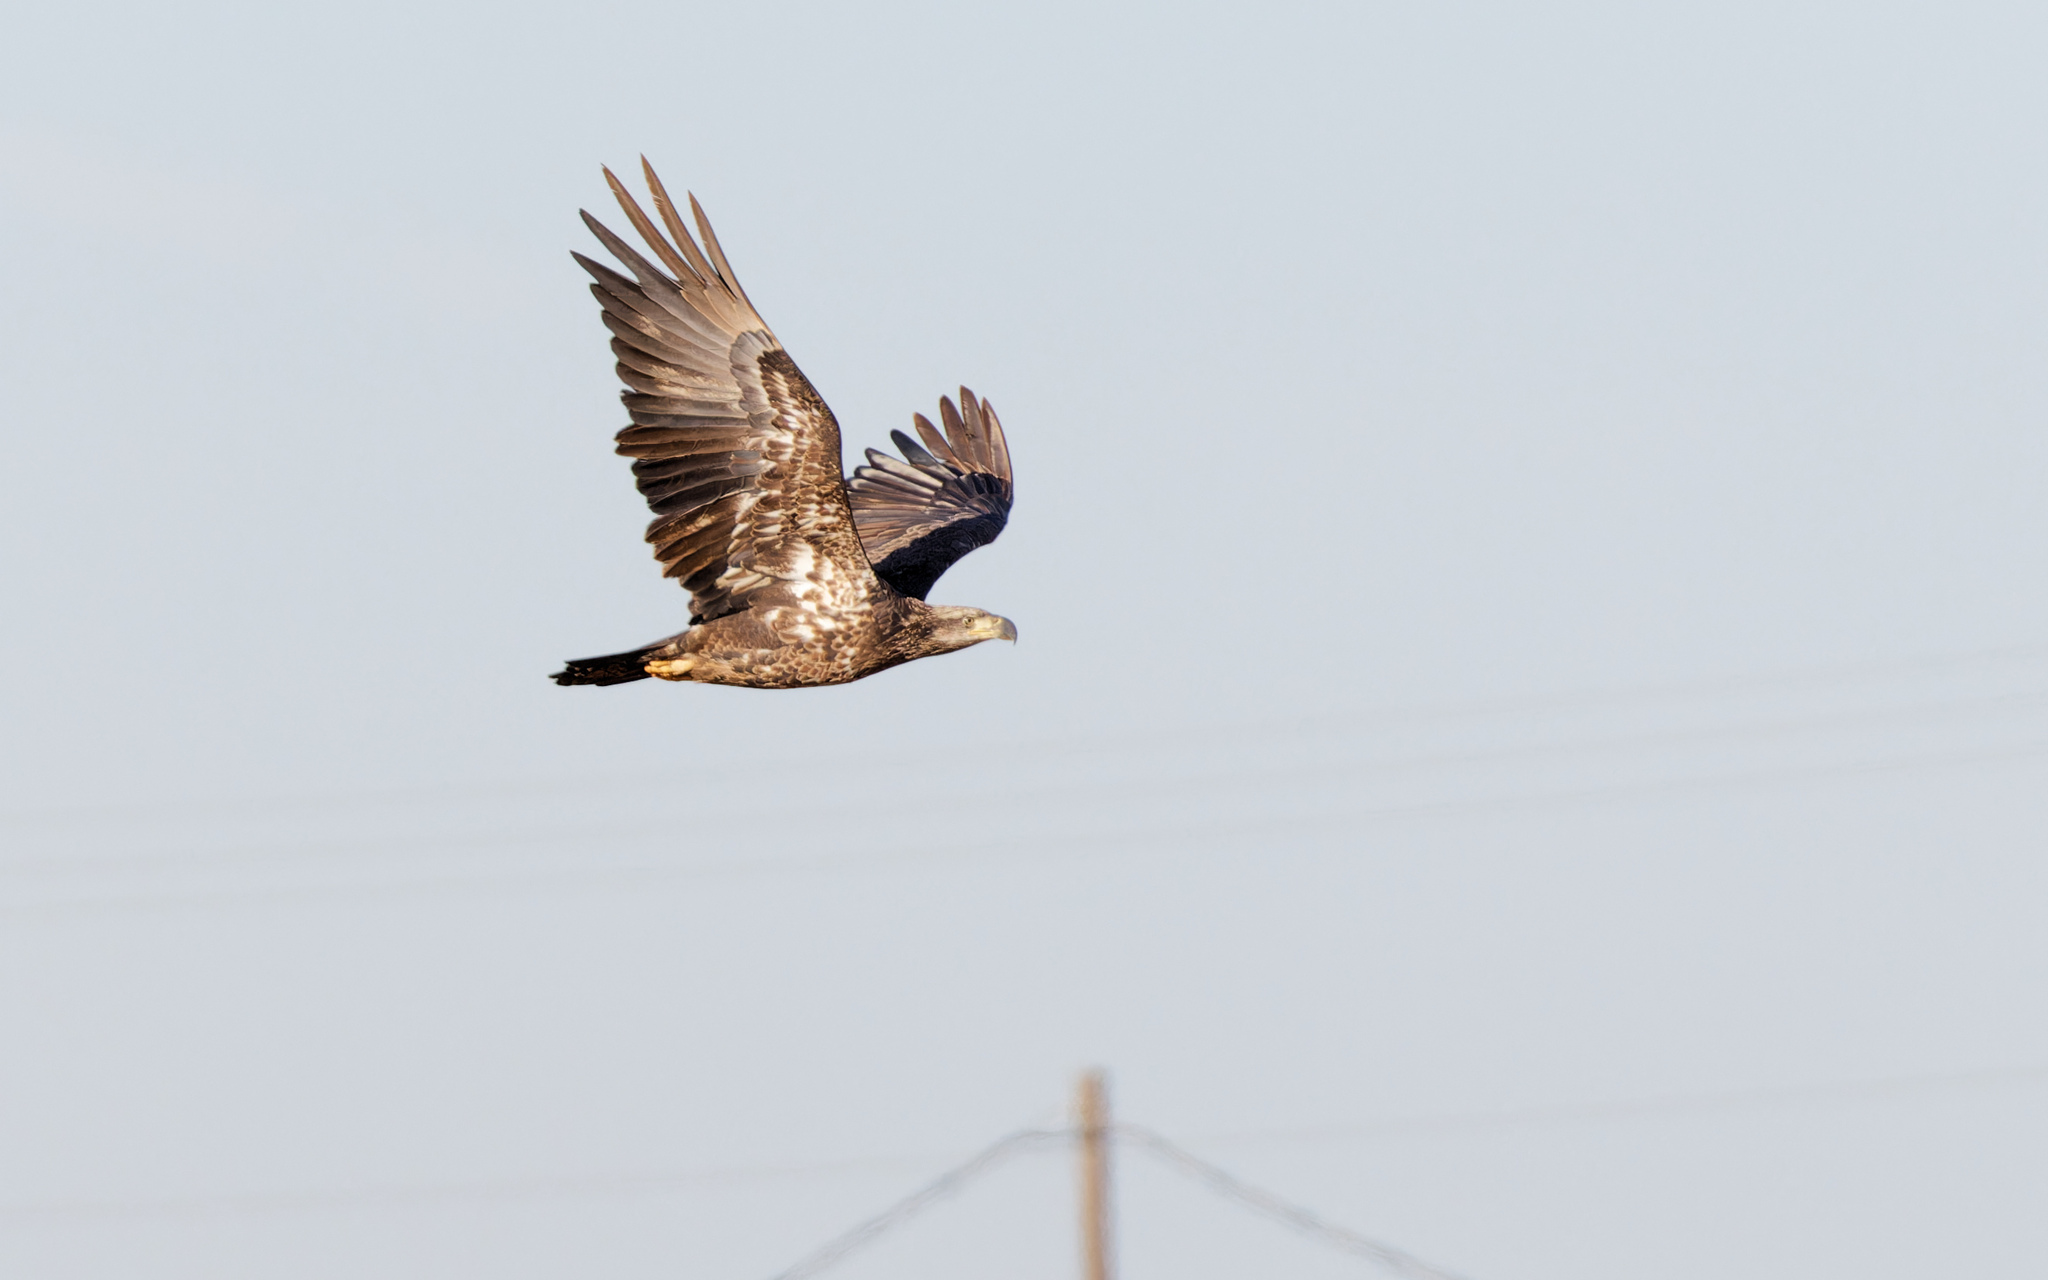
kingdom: Animalia
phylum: Chordata
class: Aves
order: Accipitriformes
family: Accipitridae
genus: Haliaeetus
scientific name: Haliaeetus leucocephalus
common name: Bald eagle
